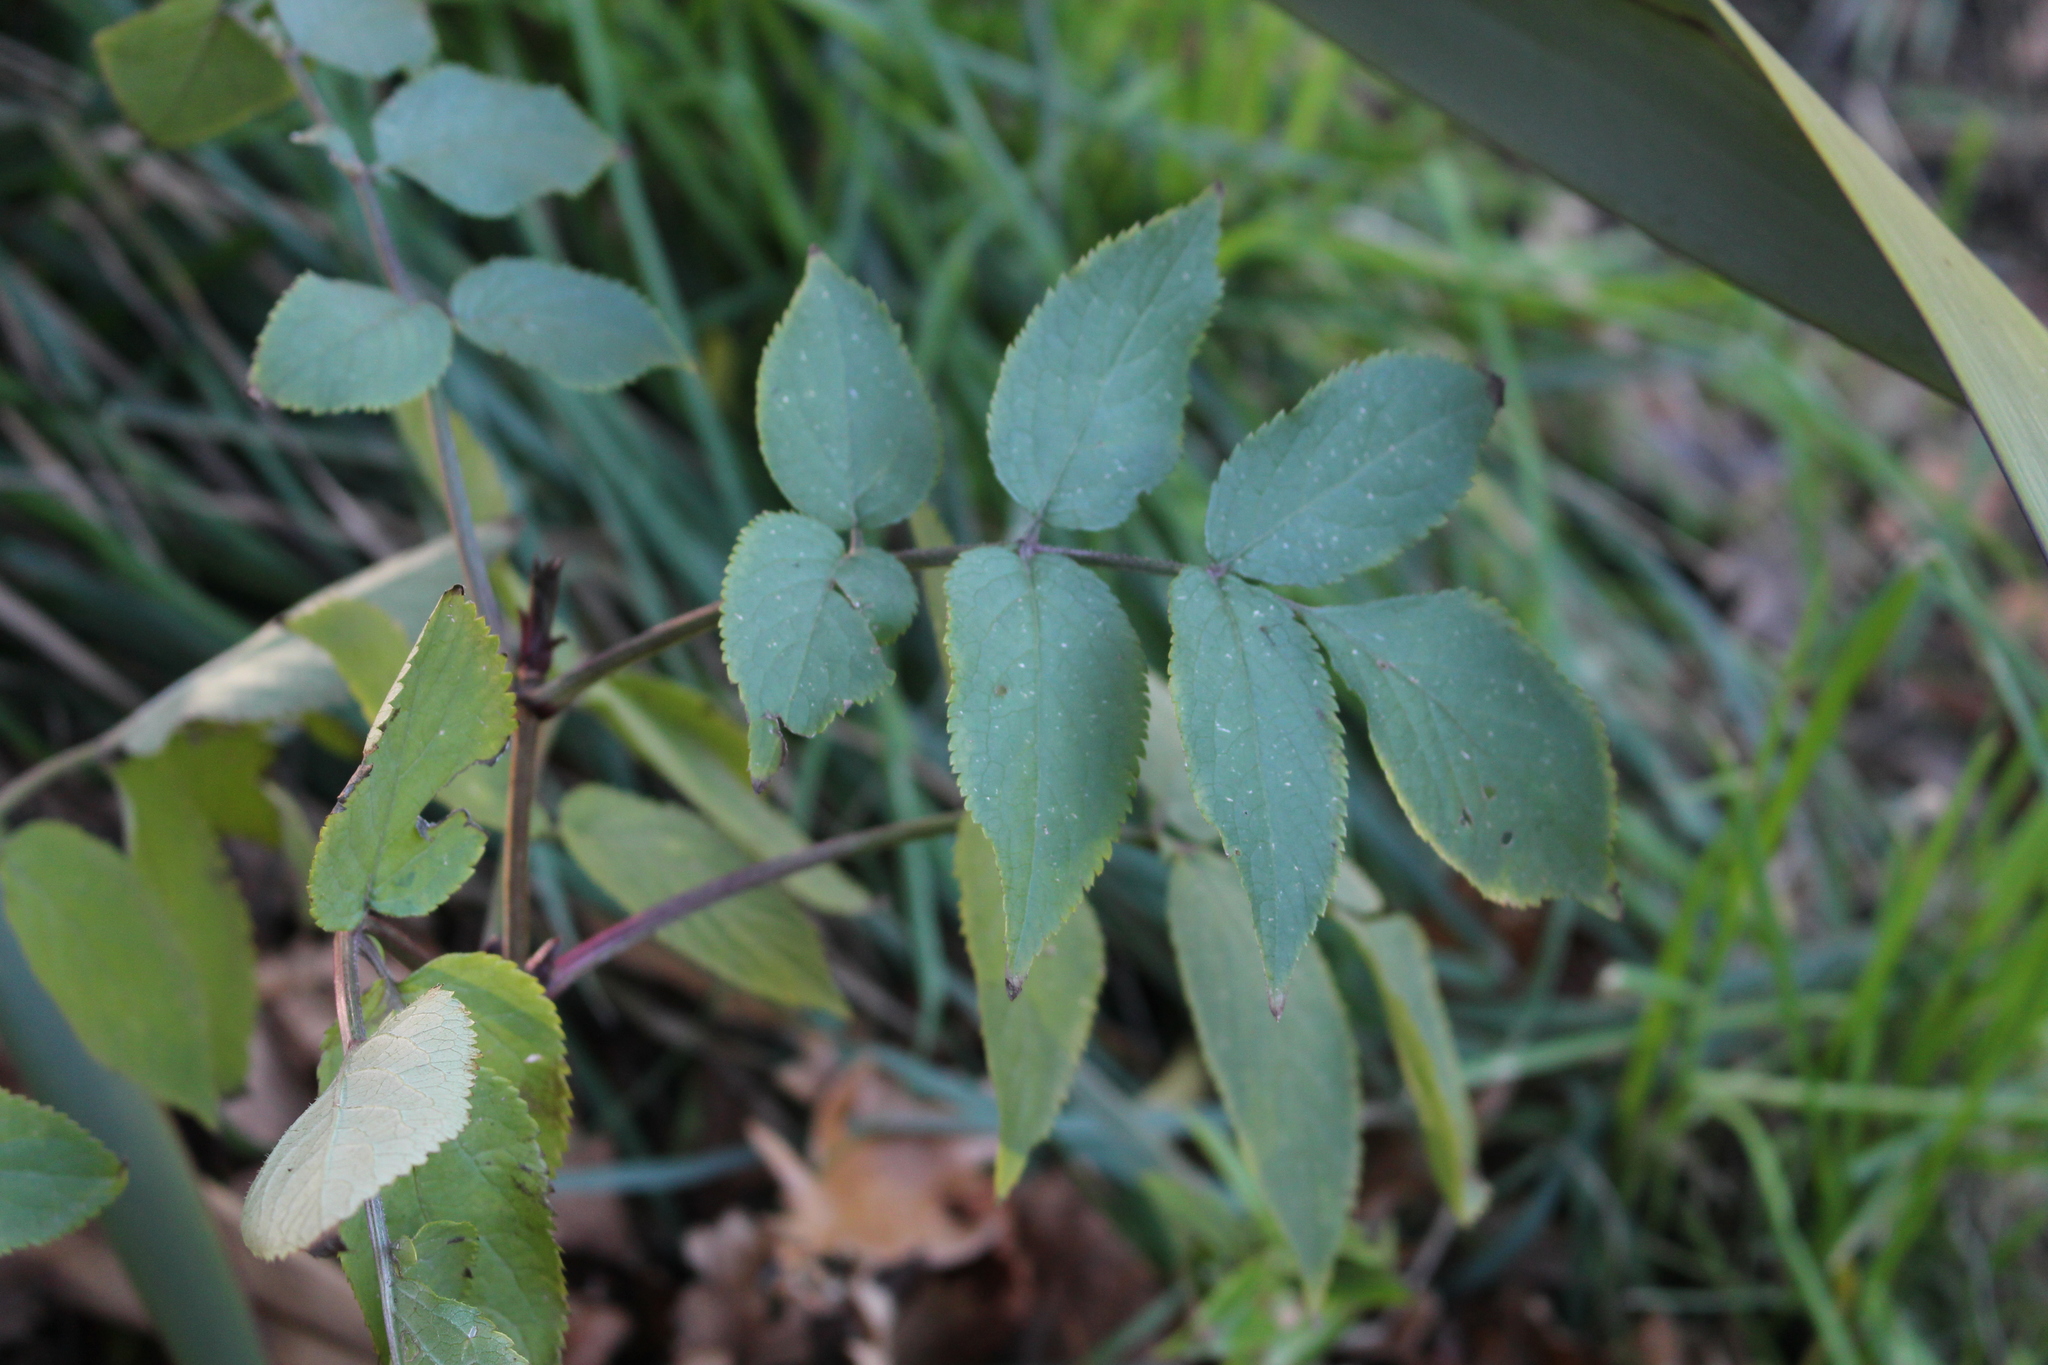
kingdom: Plantae
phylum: Tracheophyta
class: Magnoliopsida
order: Dipsacales
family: Viburnaceae
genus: Sambucus
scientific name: Sambucus nigra
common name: Elder
